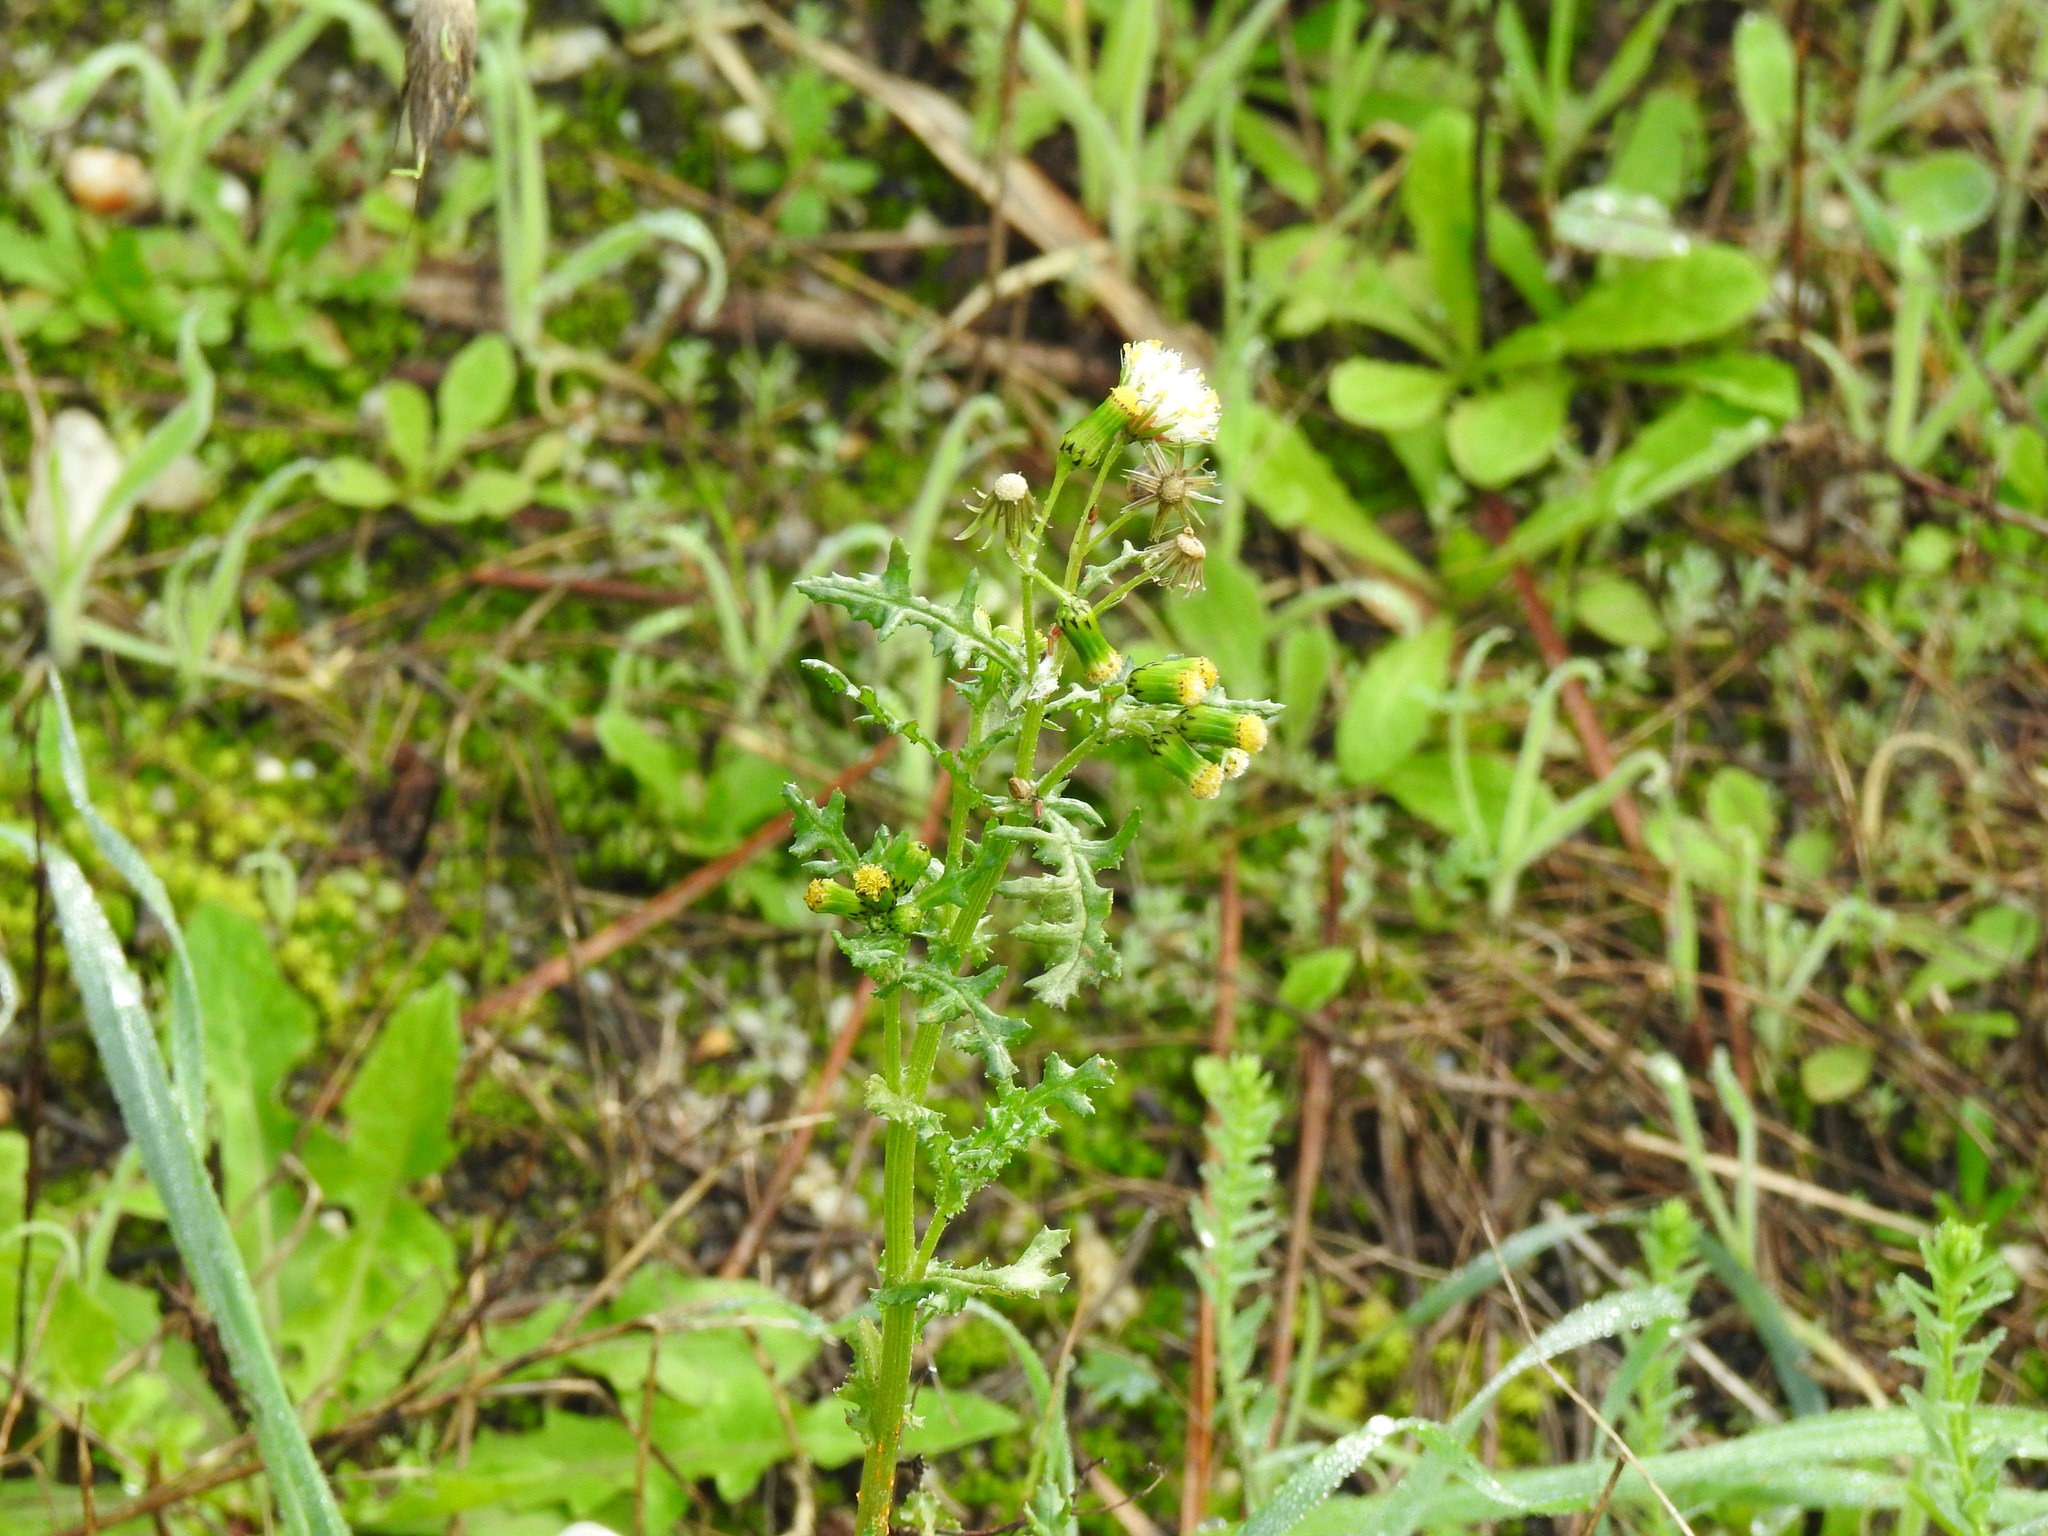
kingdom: Plantae
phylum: Tracheophyta
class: Magnoliopsida
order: Asterales
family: Asteraceae
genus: Senecio
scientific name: Senecio vulgaris
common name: Old-man-in-the-spring
